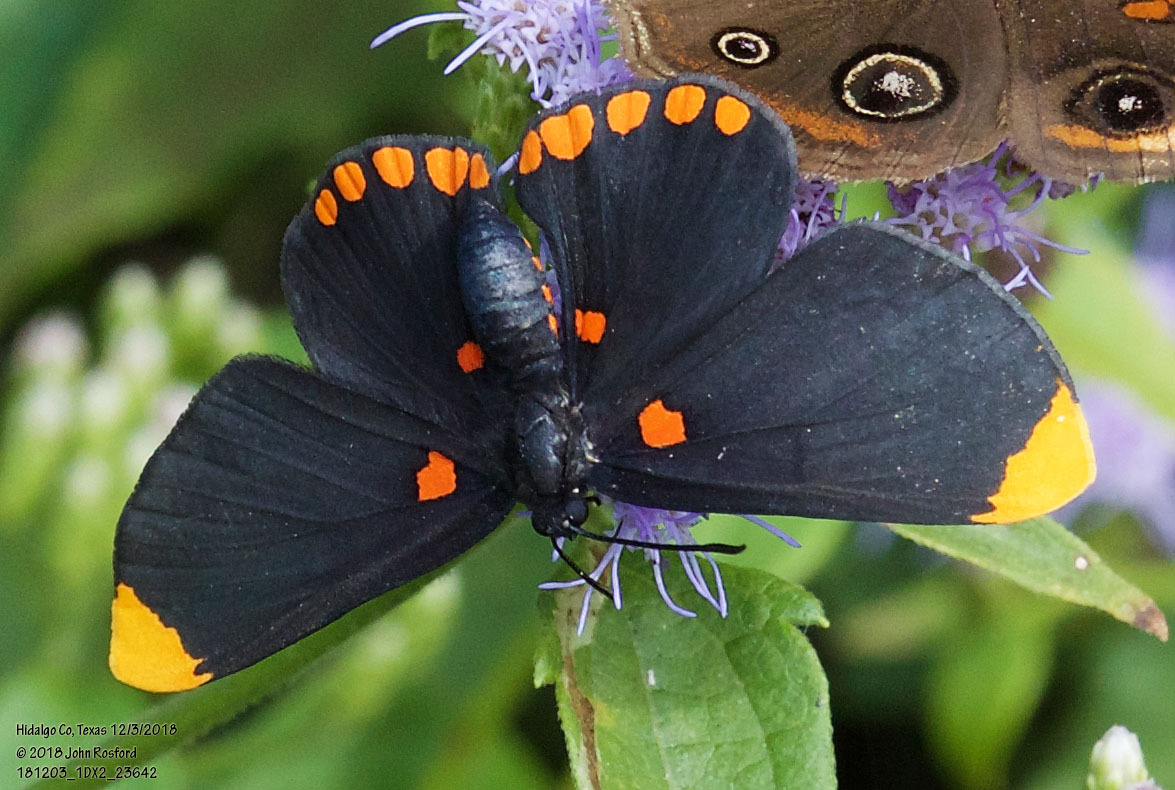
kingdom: Animalia
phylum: Arthropoda
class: Insecta
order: Lepidoptera
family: Lycaenidae
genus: Melanis
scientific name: Melanis pixe
